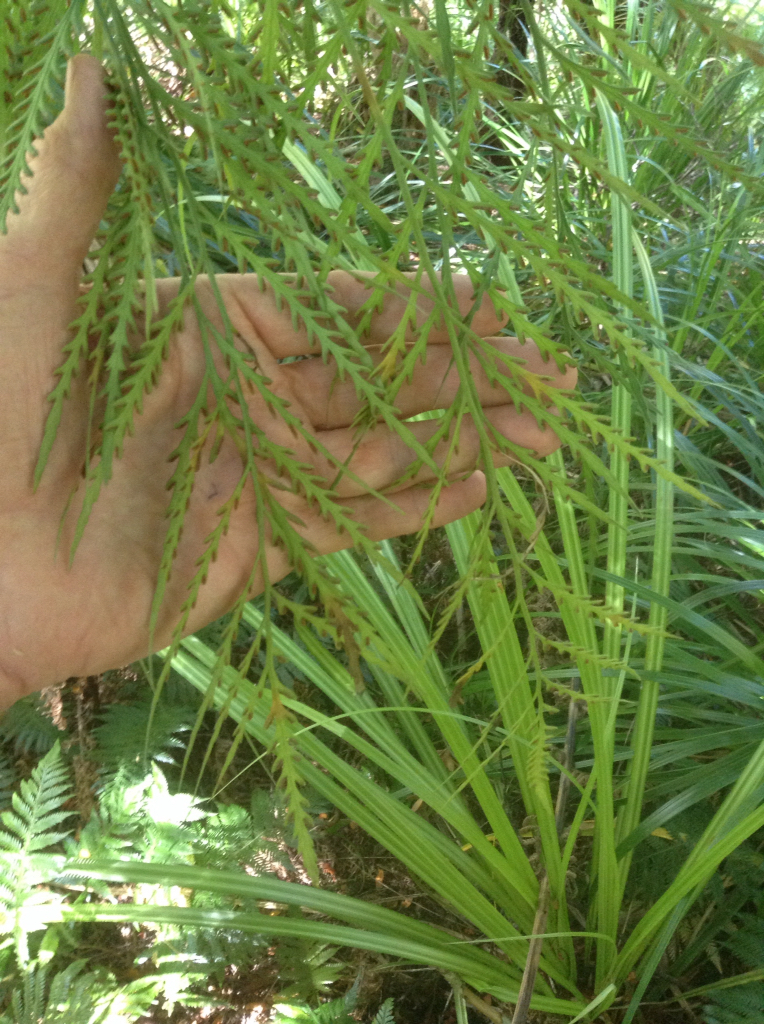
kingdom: Plantae
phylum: Tracheophyta
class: Polypodiopsida
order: Polypodiales
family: Aspleniaceae
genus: Asplenium
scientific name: Asplenium flaccidum
